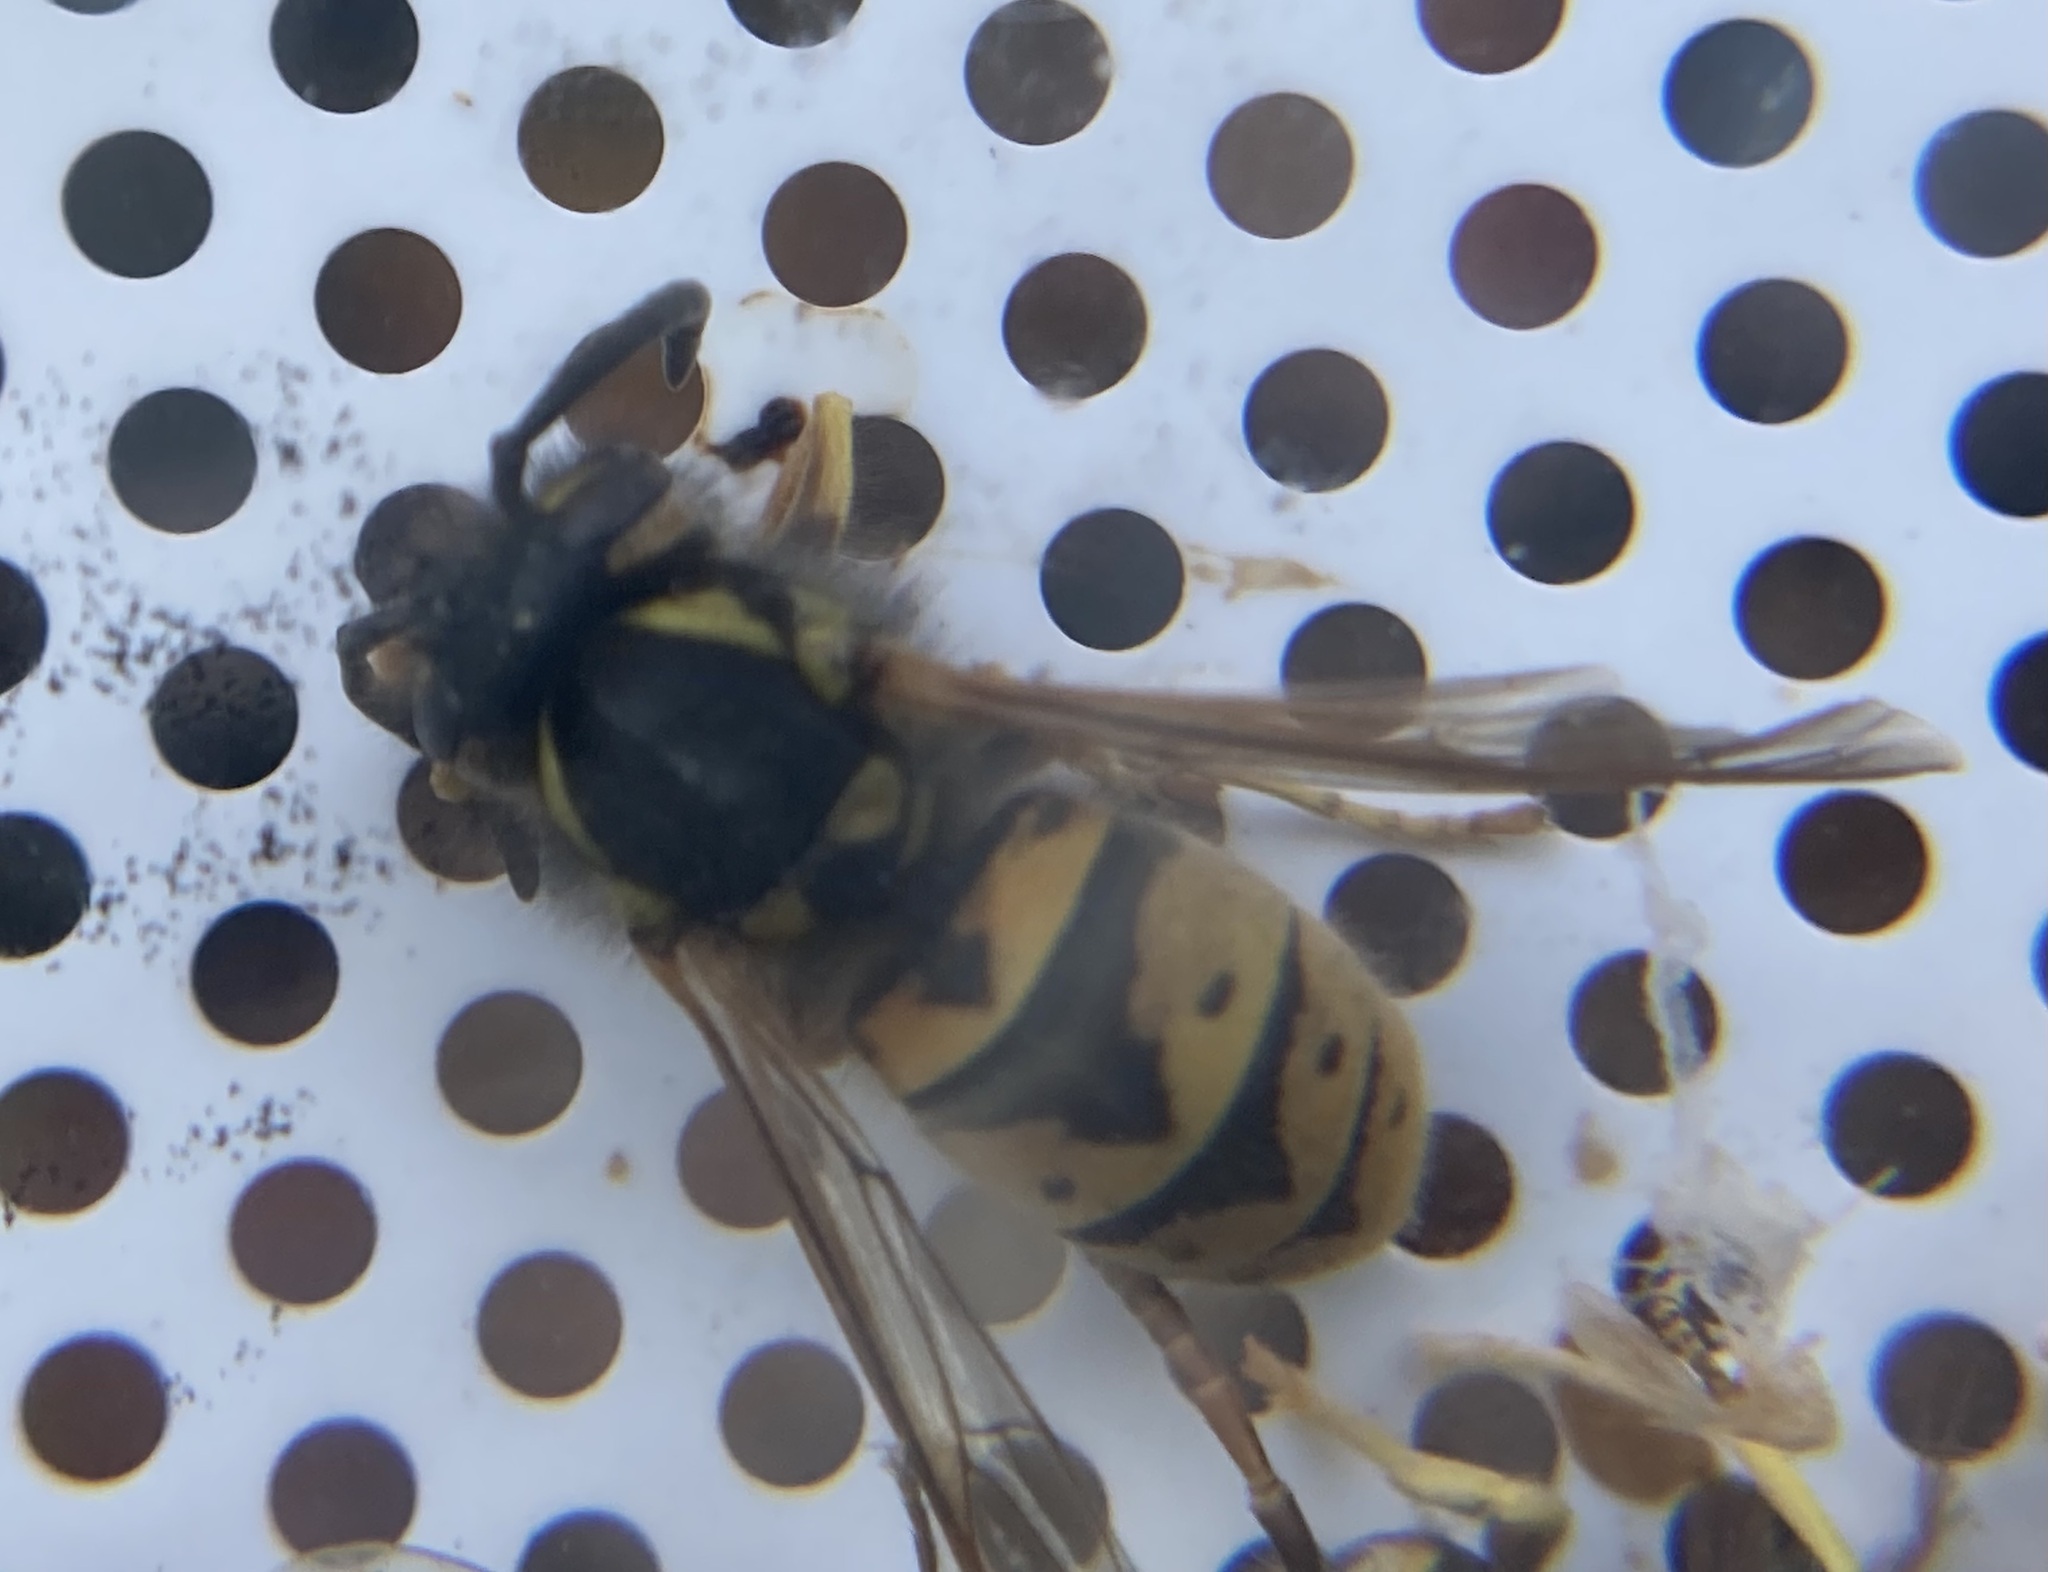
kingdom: Animalia
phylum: Arthropoda
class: Insecta
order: Hymenoptera
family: Vespidae
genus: Vespula
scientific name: Vespula germanica
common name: German wasp
